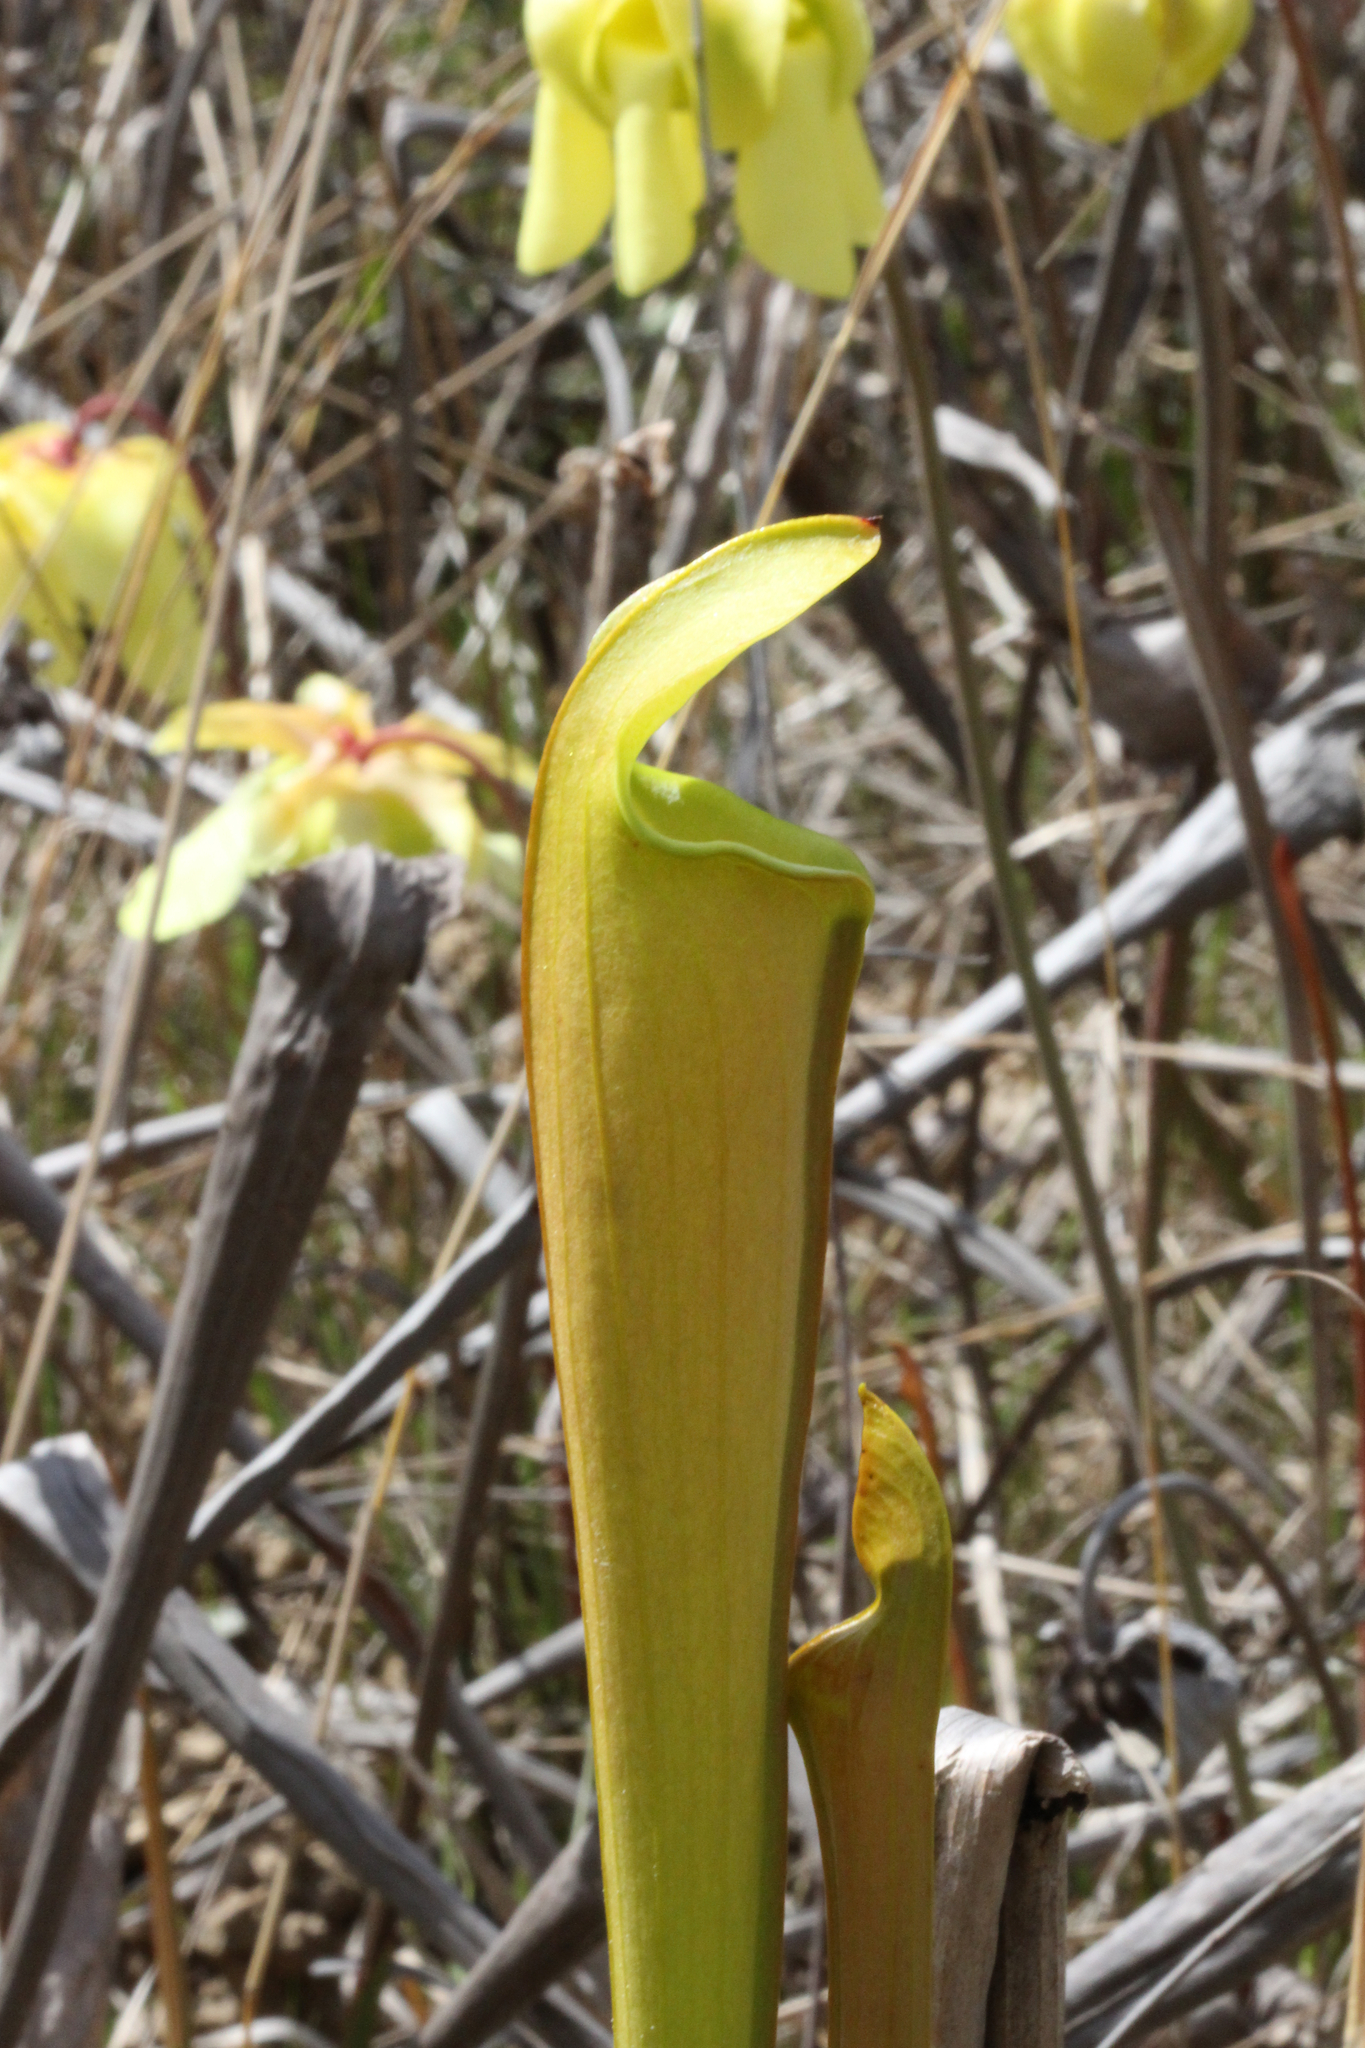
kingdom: Plantae
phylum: Tracheophyta
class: Magnoliopsida
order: Ericales
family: Sarraceniaceae
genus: Sarracenia
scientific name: Sarracenia alata
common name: Yellow trumpets
